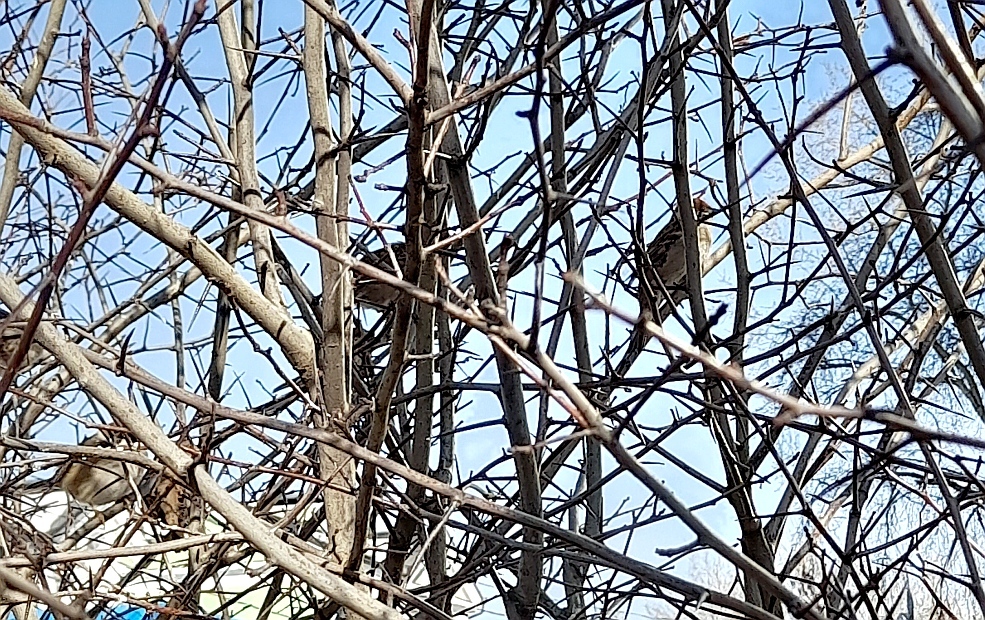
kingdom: Animalia
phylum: Chordata
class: Aves
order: Passeriformes
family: Passeridae
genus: Passer
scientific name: Passer montanus
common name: Eurasian tree sparrow
